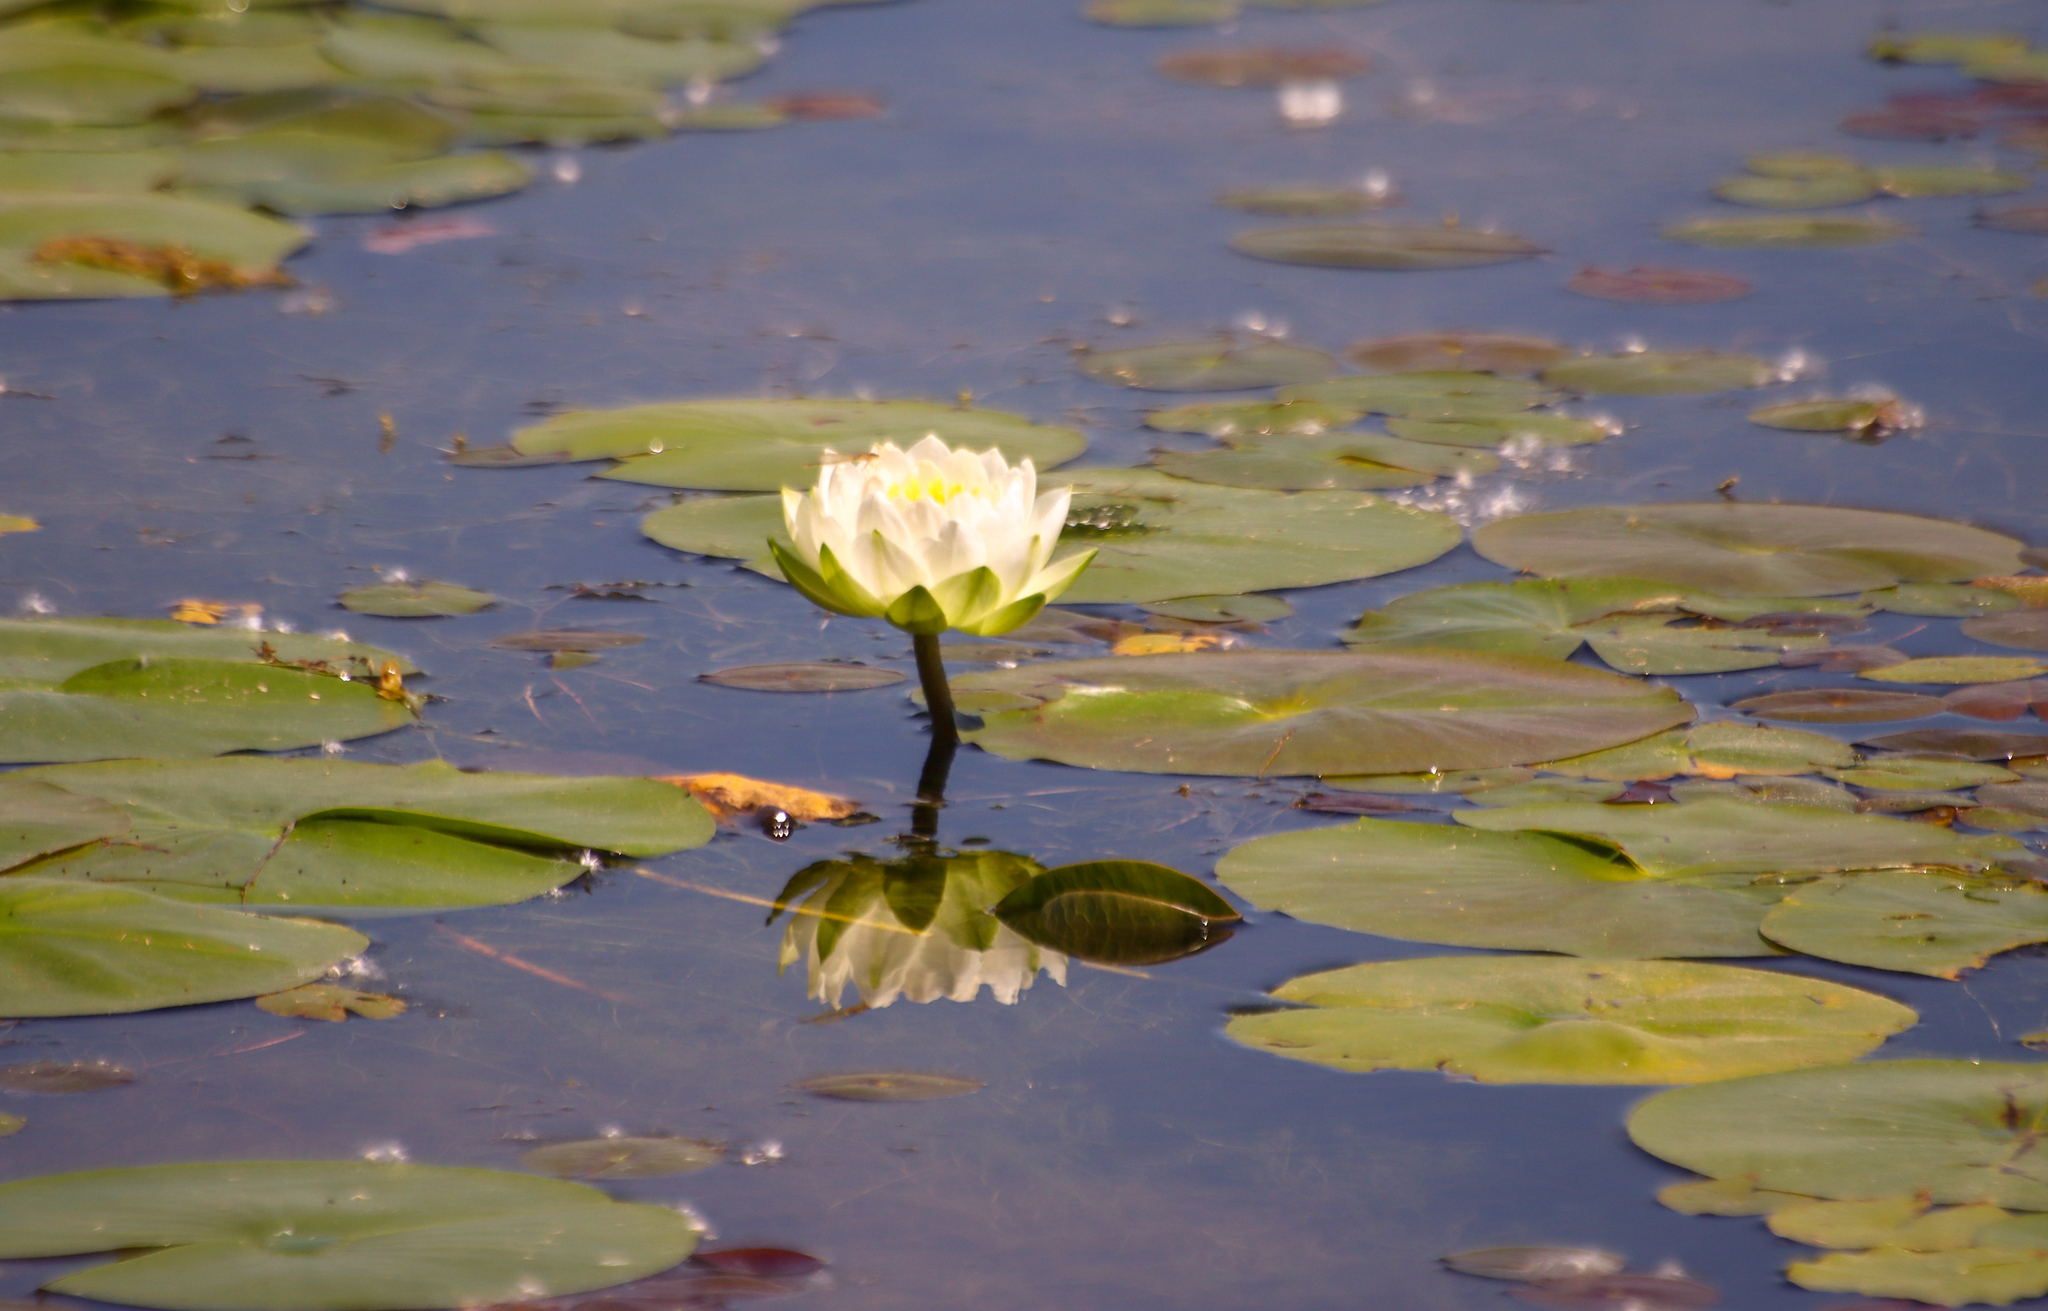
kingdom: Plantae
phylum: Tracheophyta
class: Magnoliopsida
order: Nymphaeales
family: Nymphaeaceae
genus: Nymphaea
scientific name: Nymphaea odorata
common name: Fragrant water-lily
